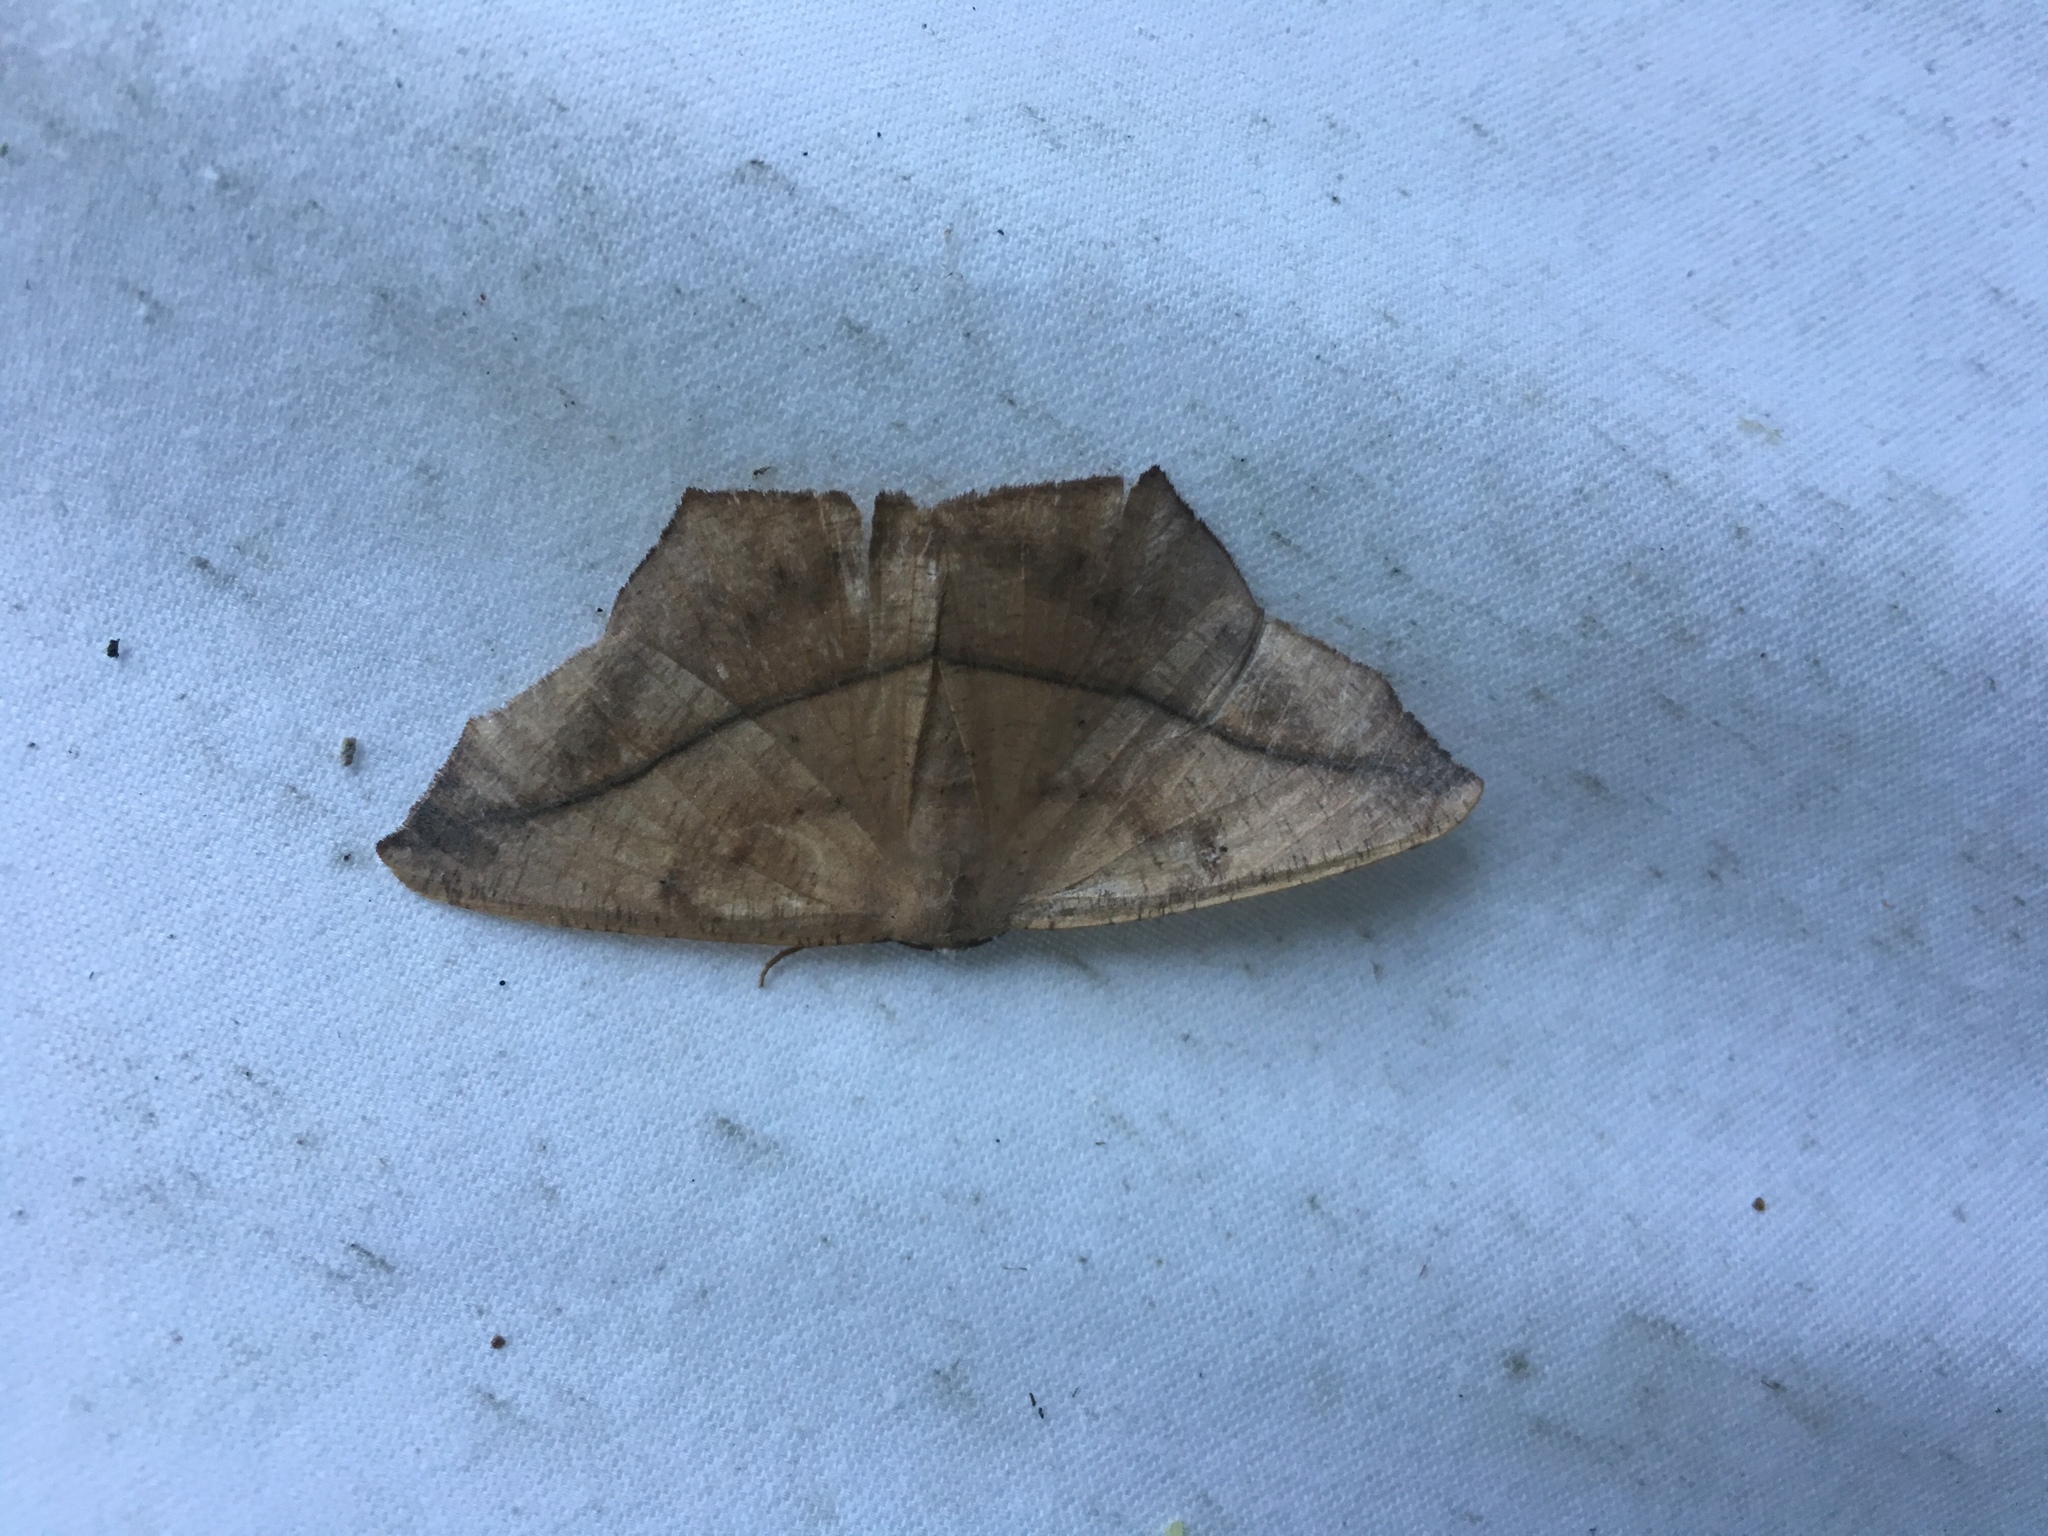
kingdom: Animalia
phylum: Arthropoda
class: Insecta
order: Lepidoptera
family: Geometridae
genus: Prochoerodes
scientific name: Prochoerodes lineola
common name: Large maple spanworm
